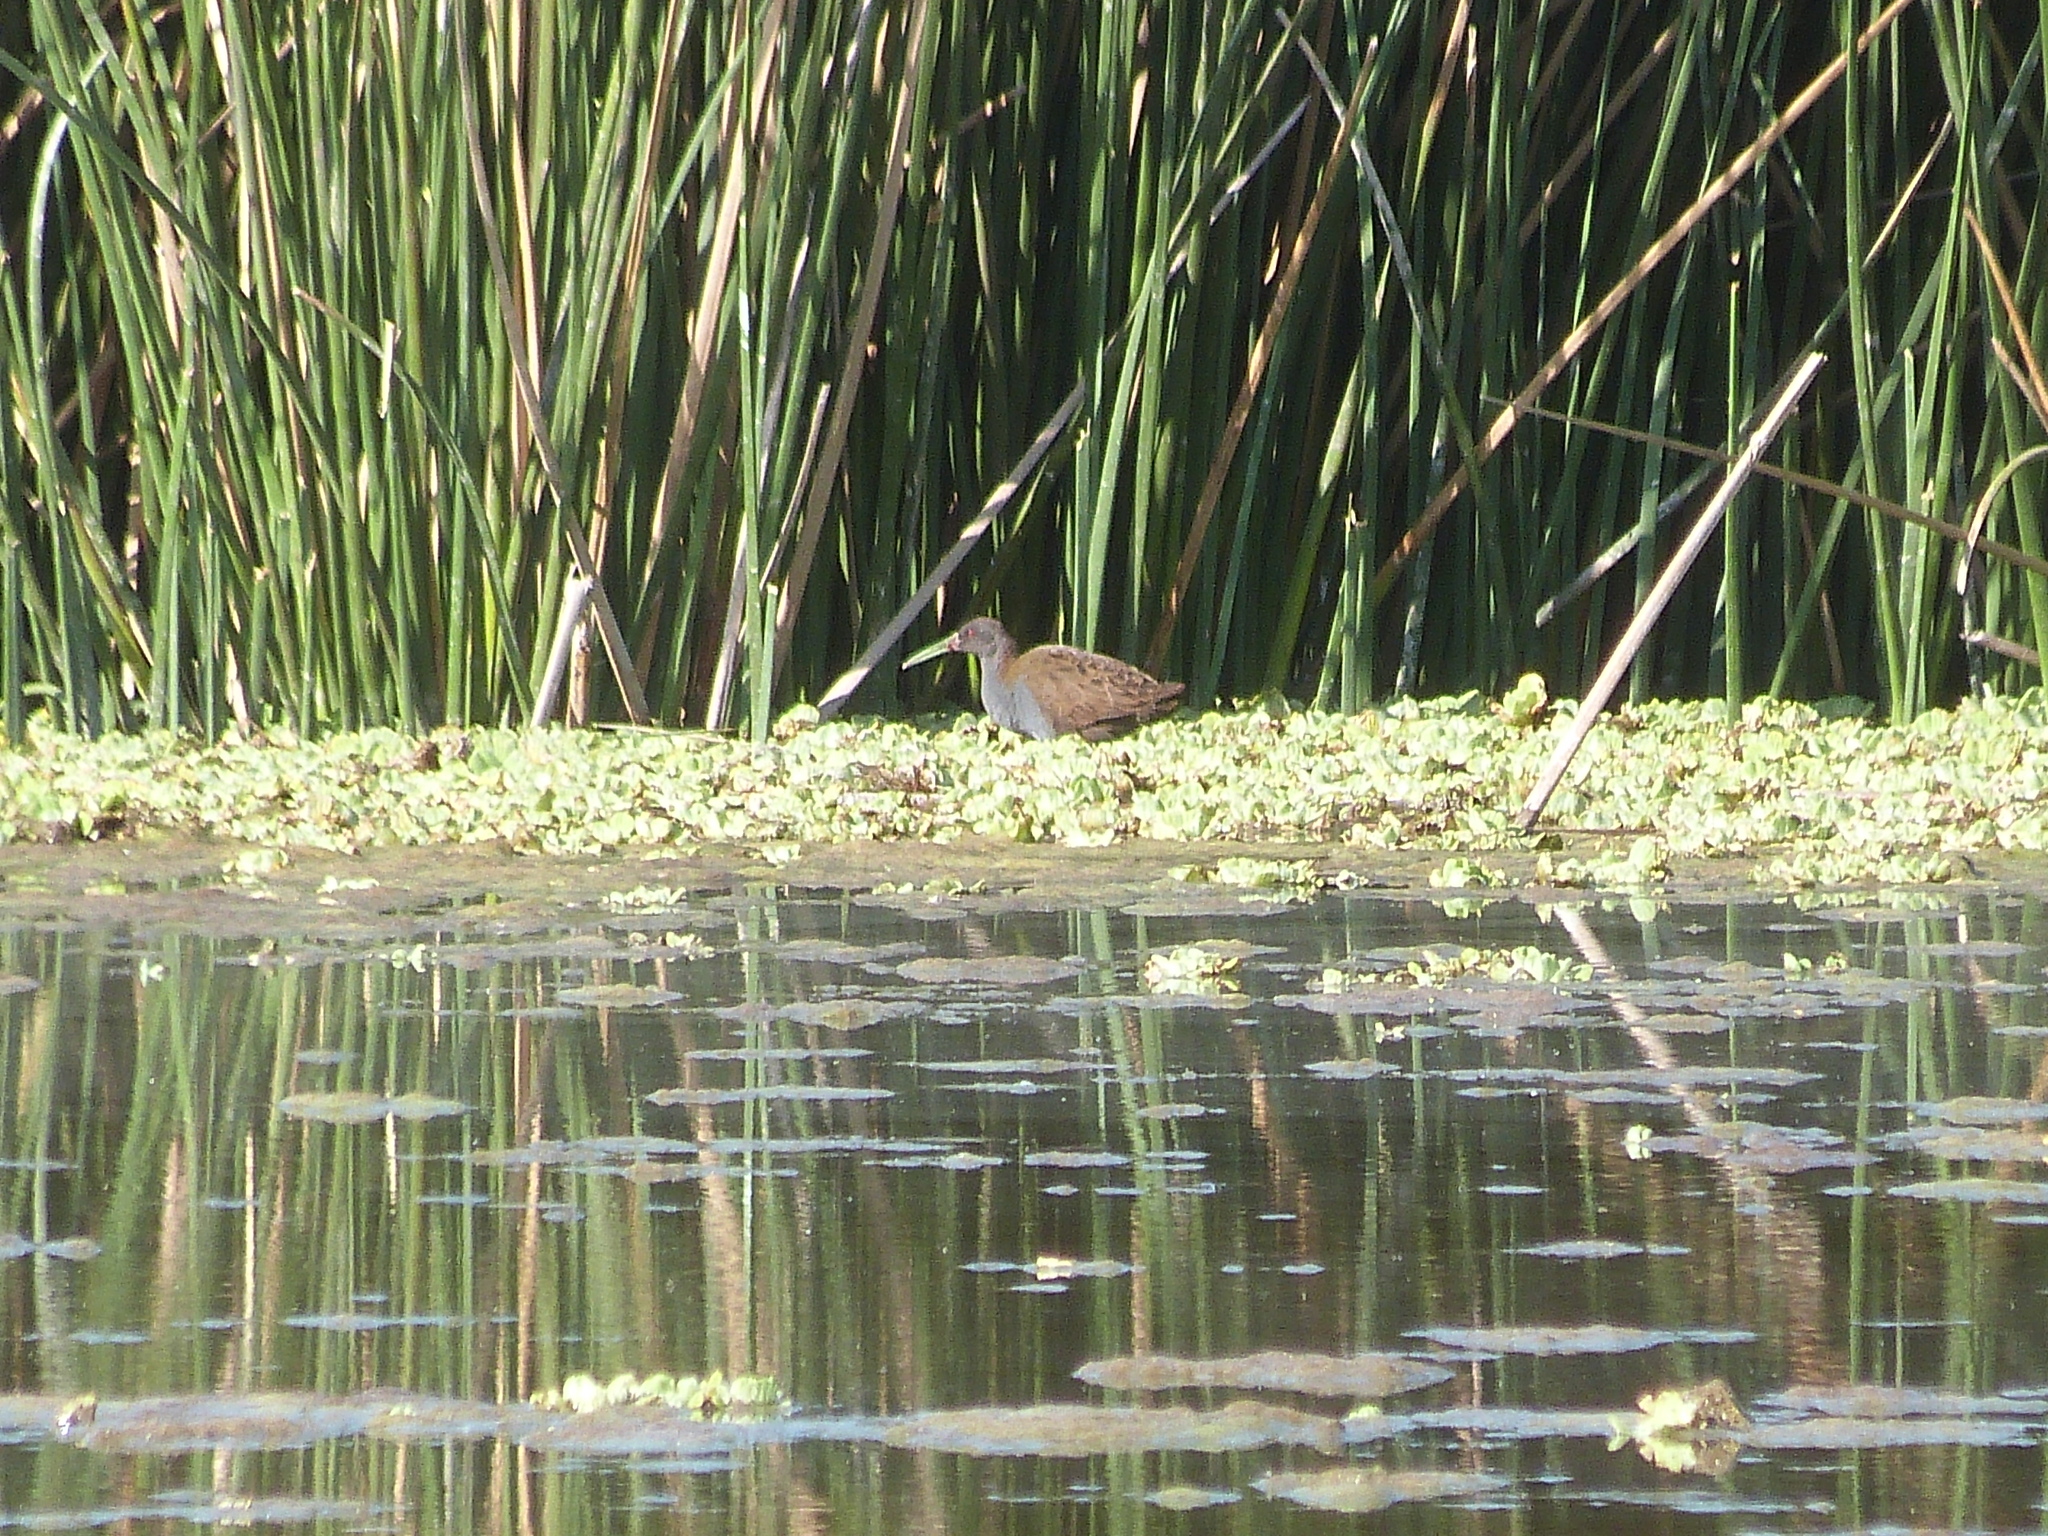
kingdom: Animalia
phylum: Chordata
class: Aves
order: Gruiformes
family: Rallidae
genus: Pardirallus
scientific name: Pardirallus sanguinolentus
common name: Plumbeous rail
